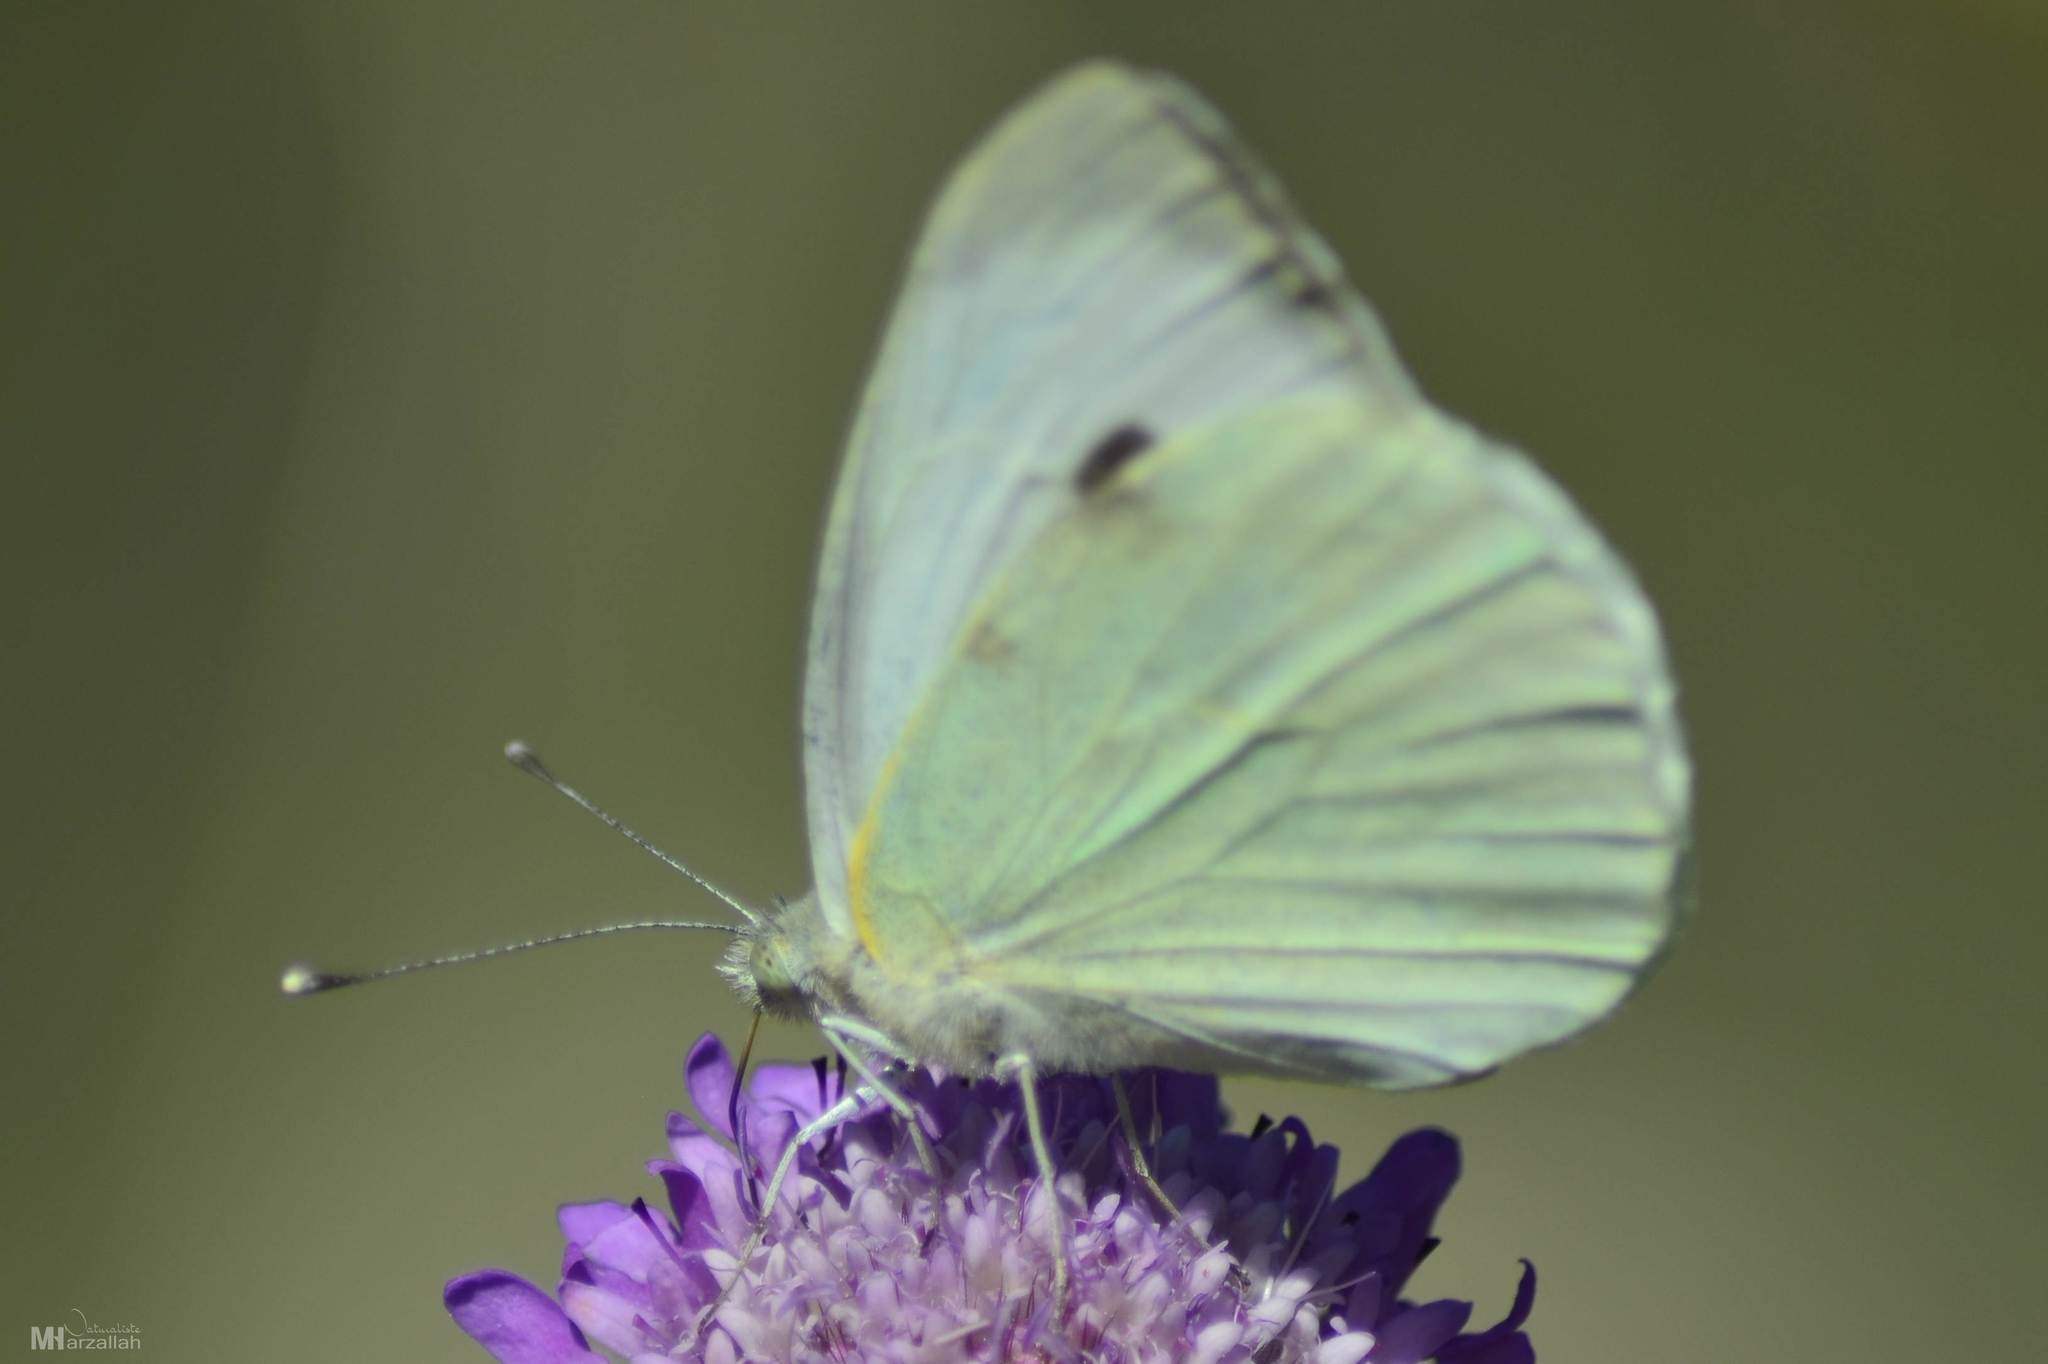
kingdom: Animalia
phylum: Arthropoda
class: Insecta
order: Lepidoptera
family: Pieridae
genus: Pieris
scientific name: Pieris brassicae
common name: Large white
